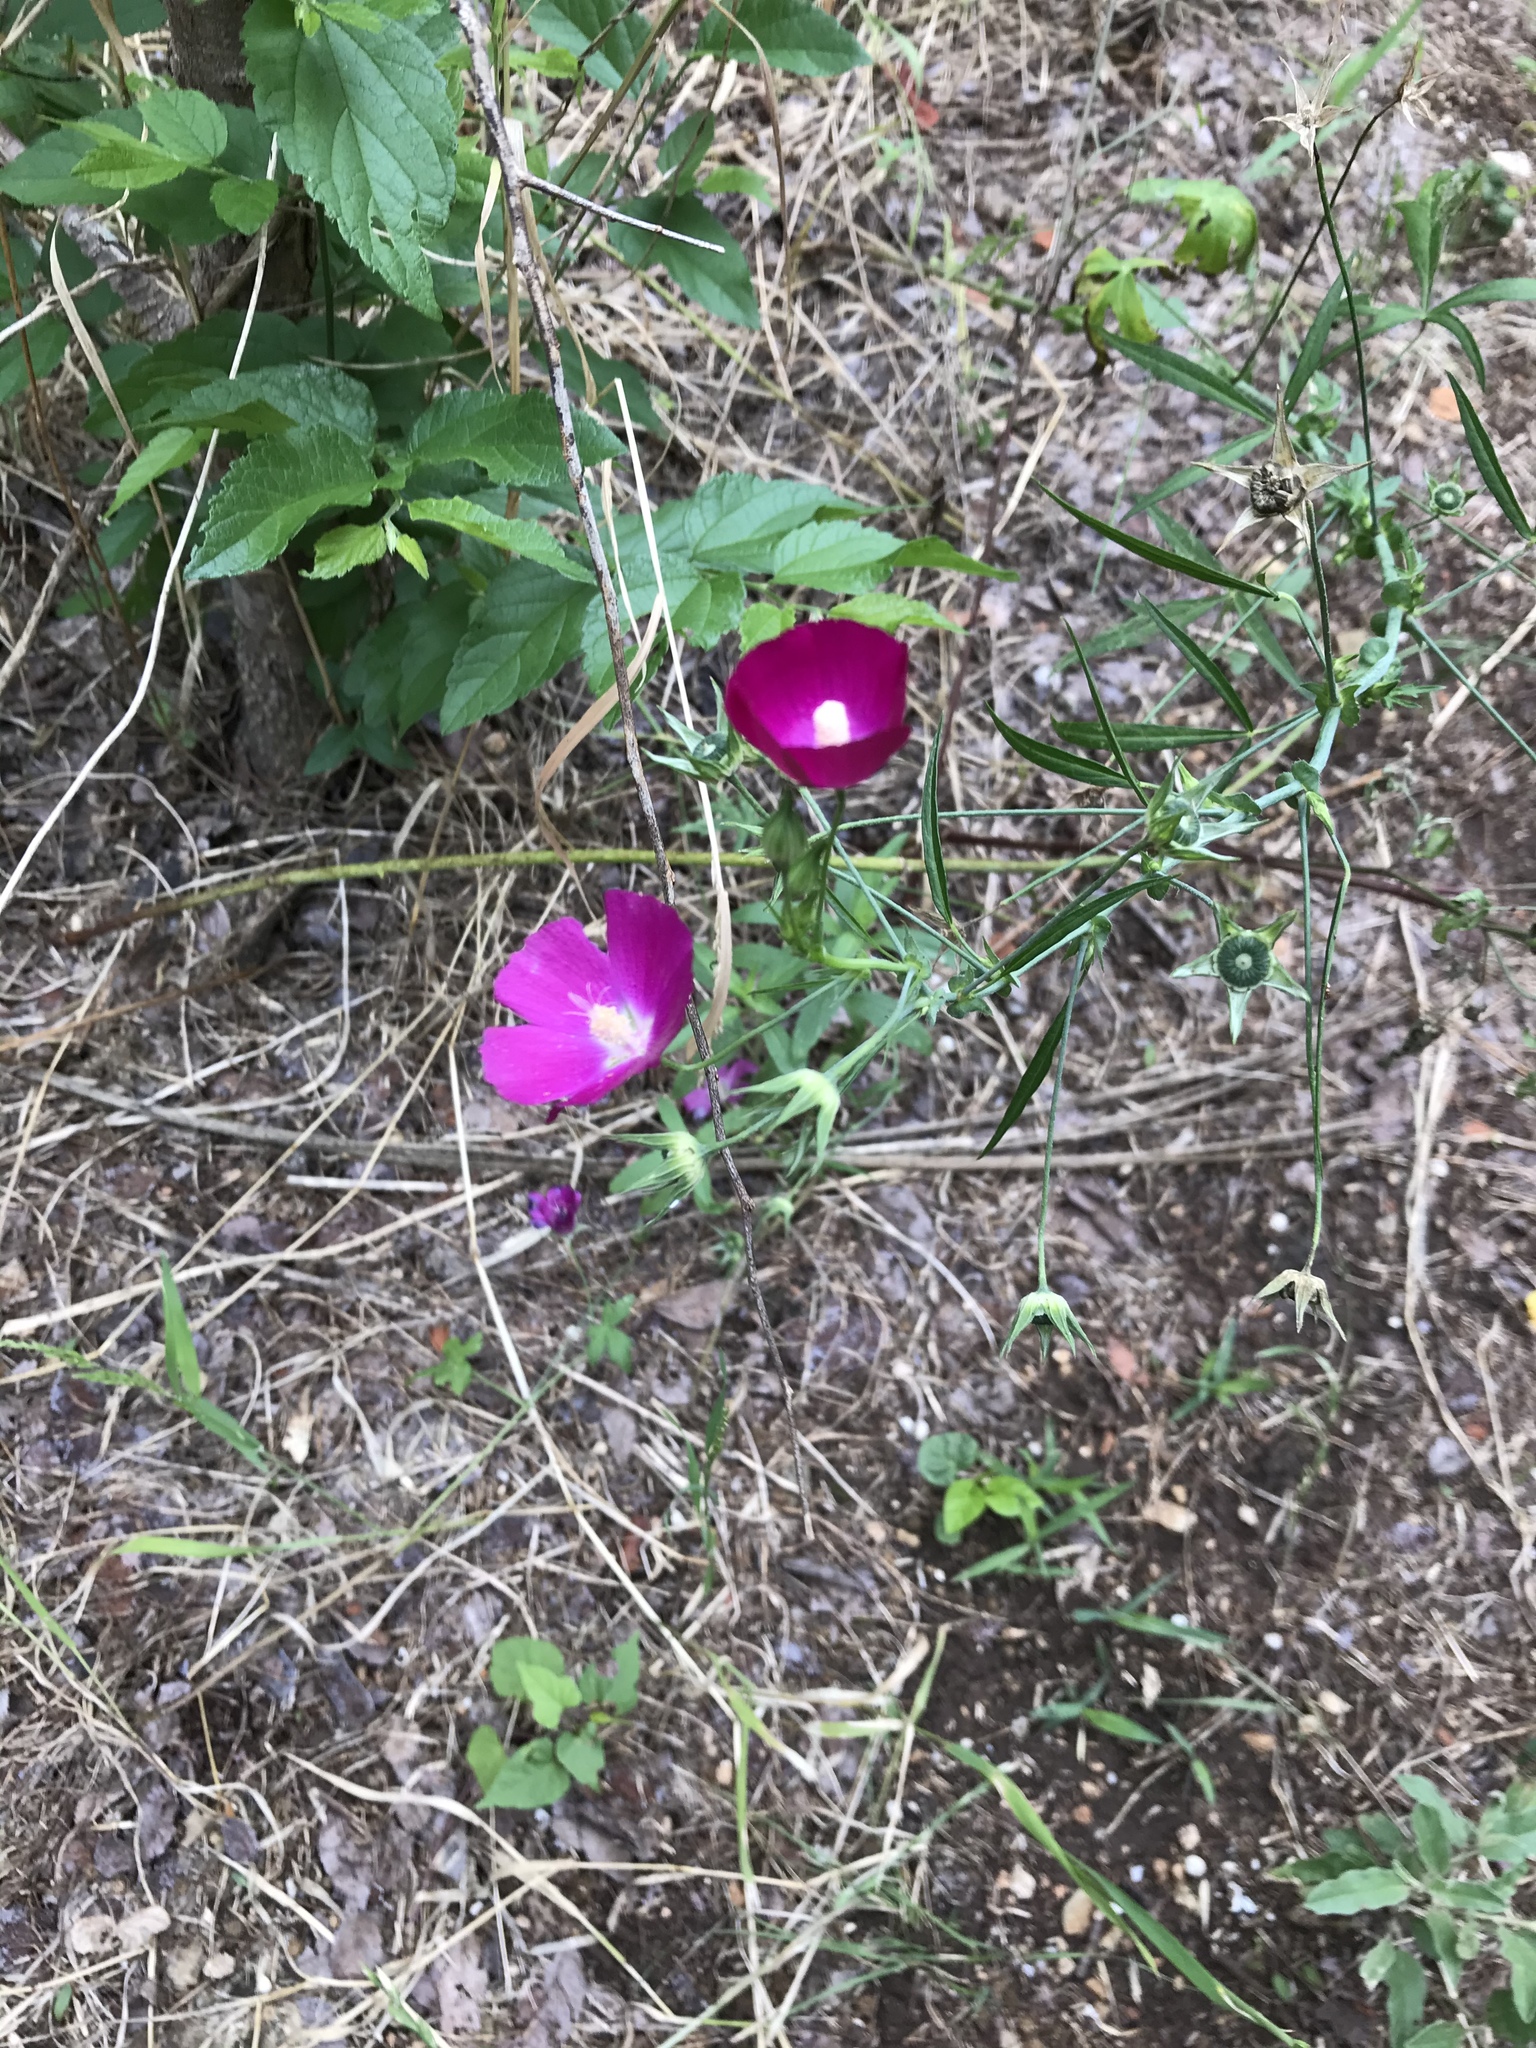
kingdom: Plantae
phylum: Tracheophyta
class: Magnoliopsida
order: Malvales
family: Malvaceae
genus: Callirhoe
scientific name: Callirhoe leiocarpa
